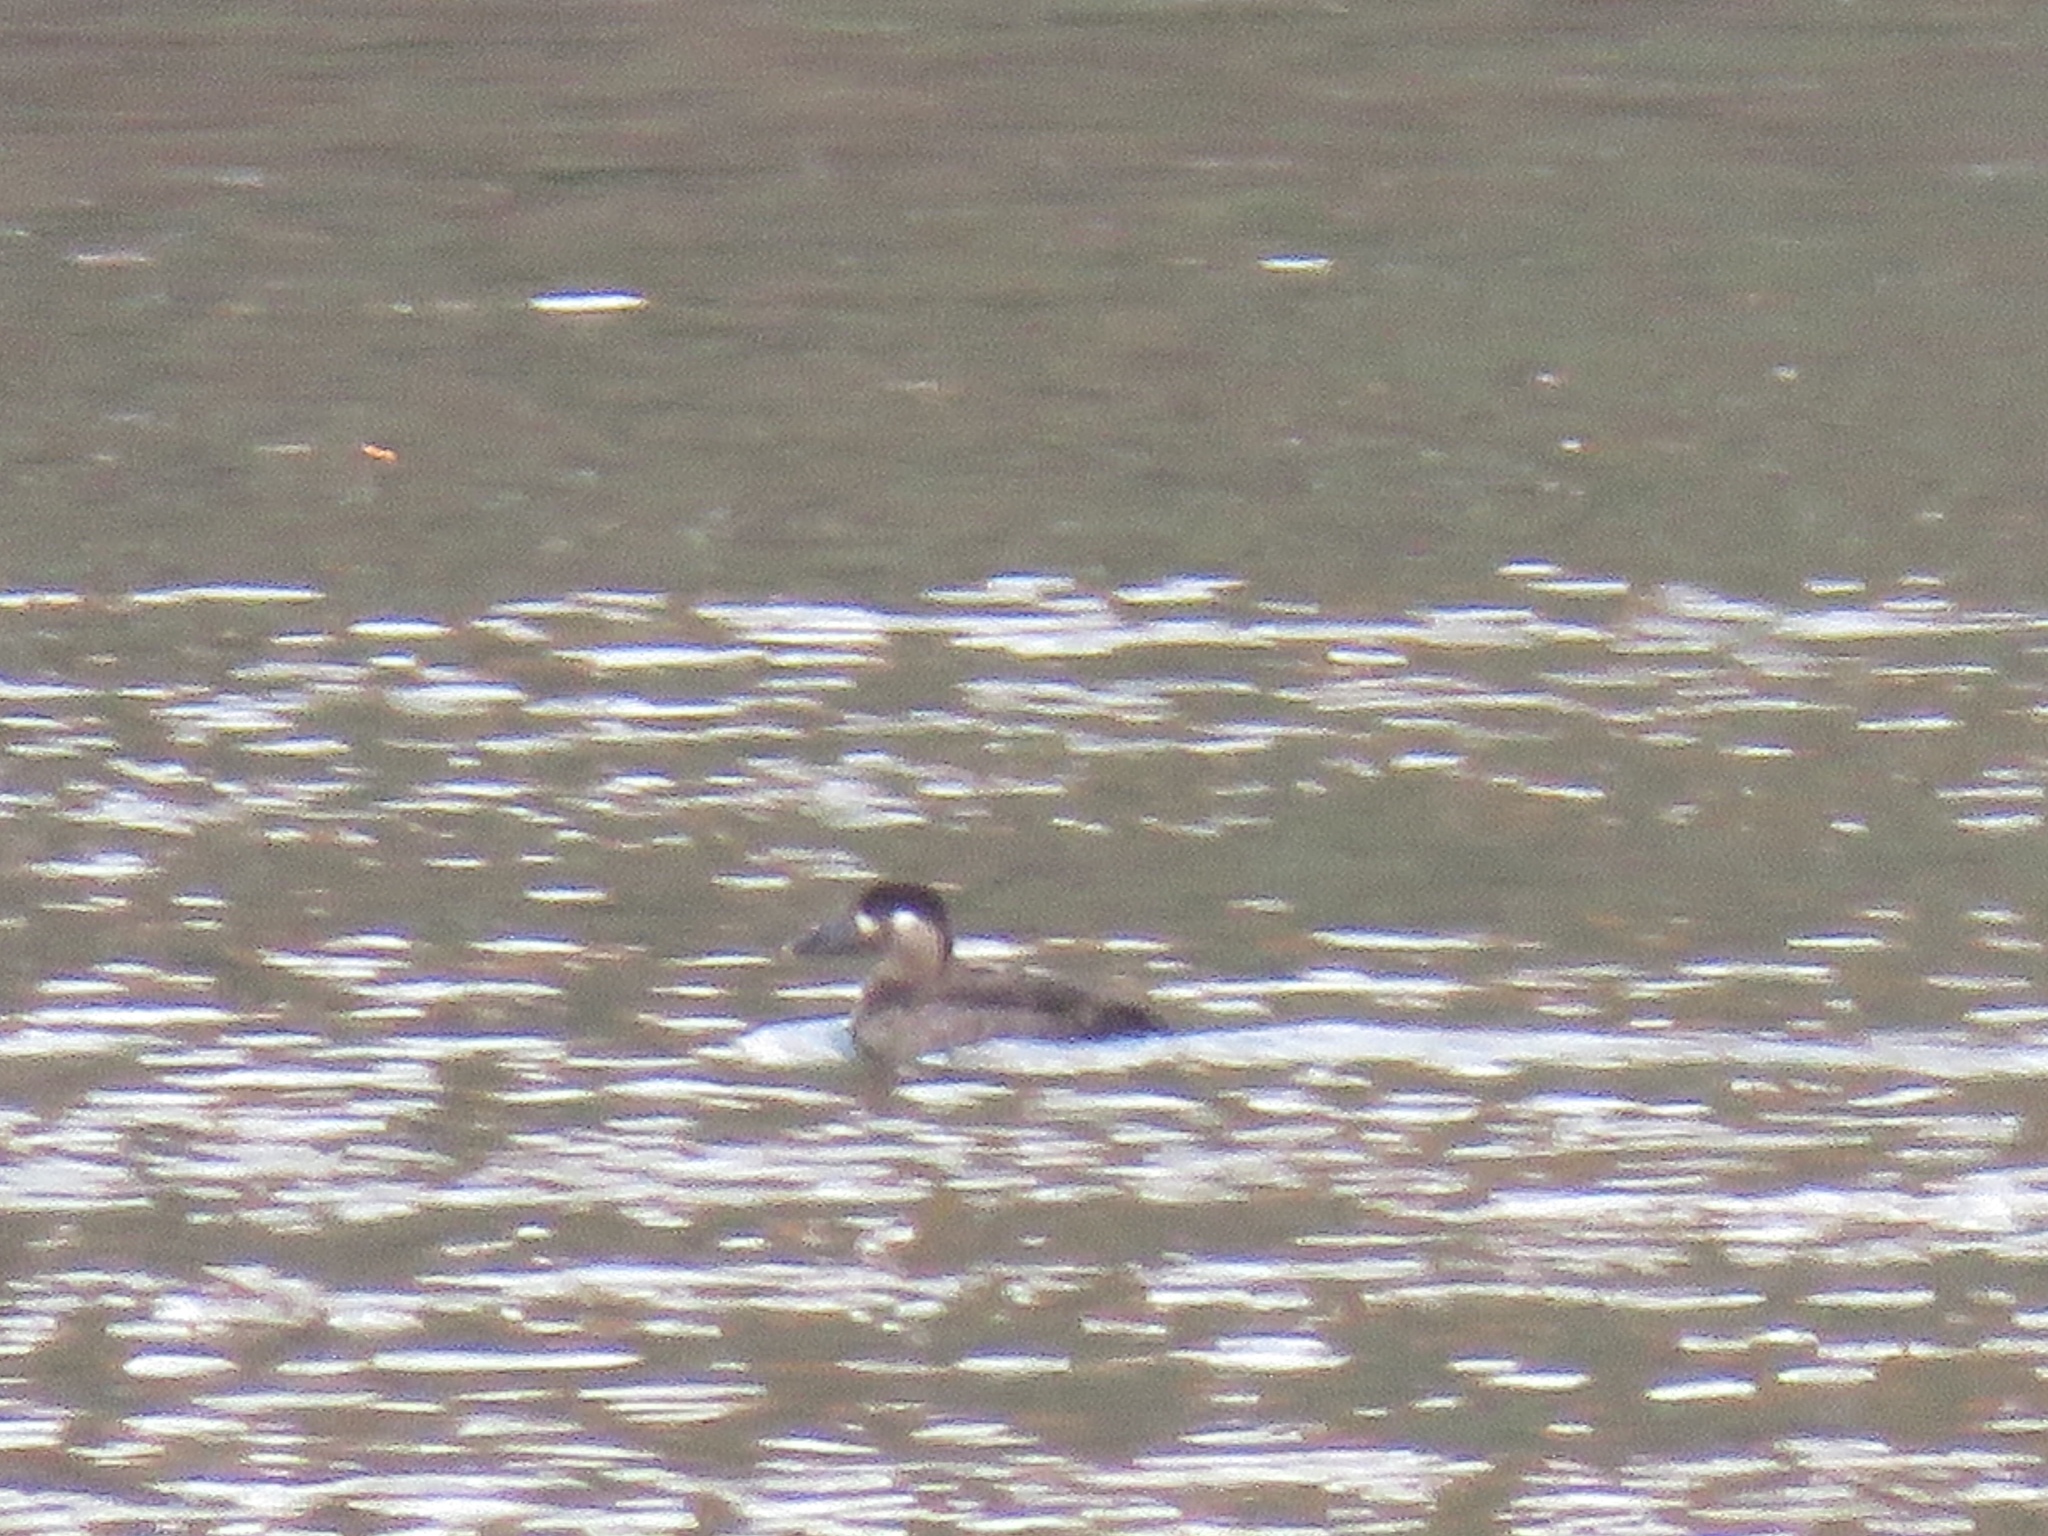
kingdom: Animalia
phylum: Chordata
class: Aves
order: Anseriformes
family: Anatidae
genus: Melanitta
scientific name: Melanitta perspicillata
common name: Surf scoter
